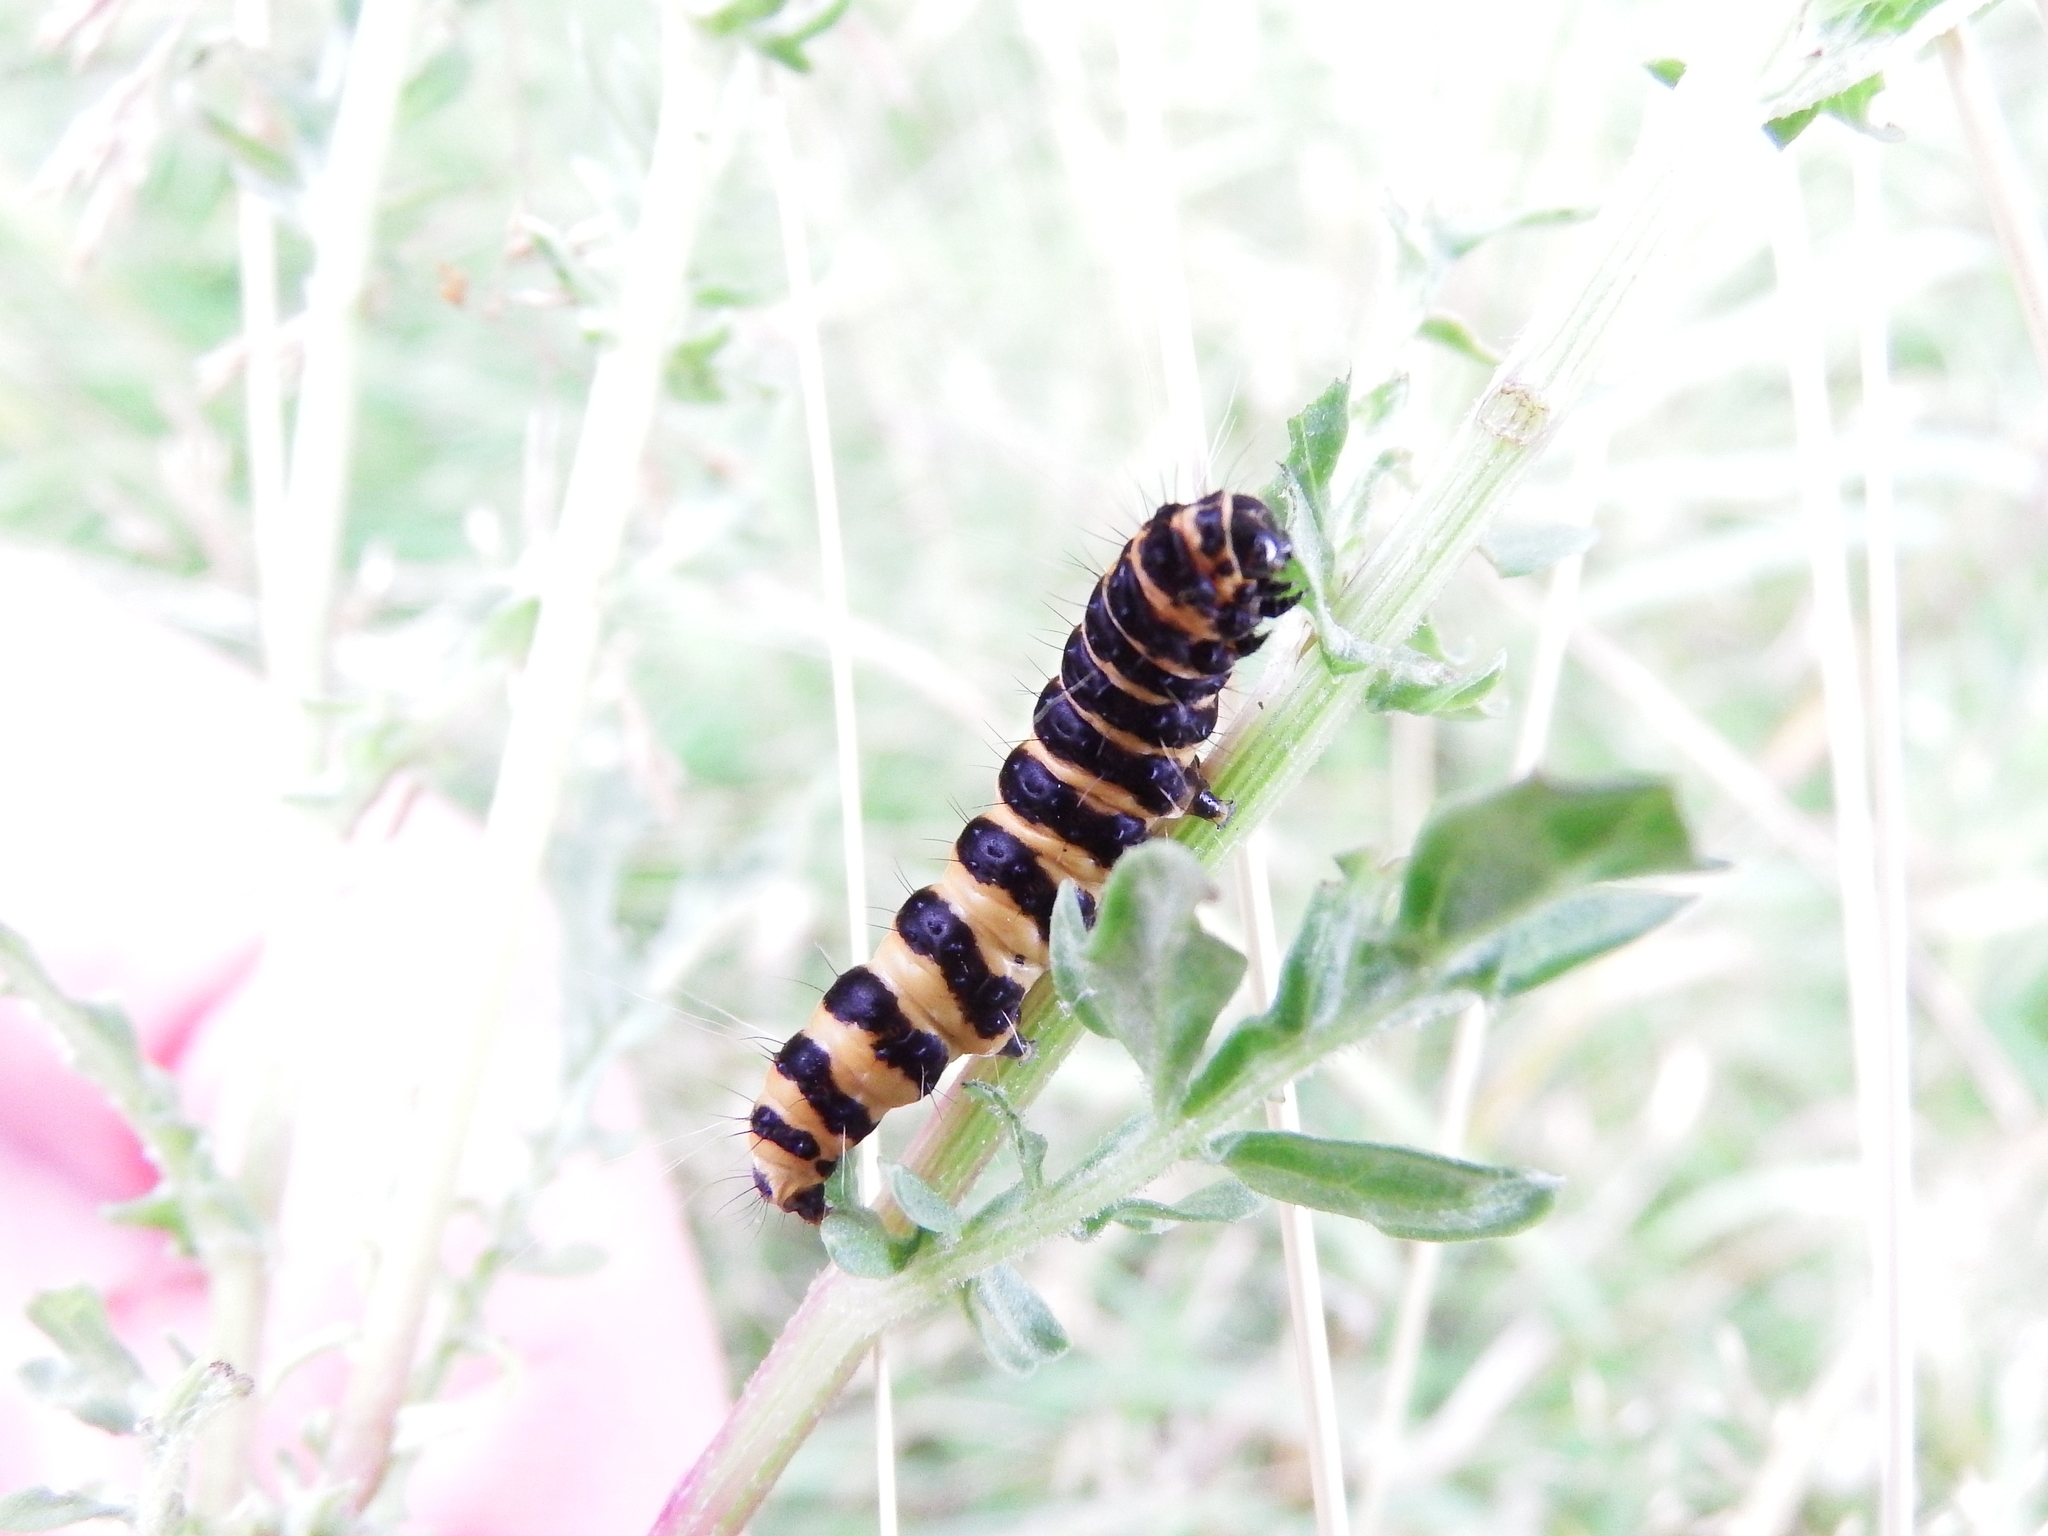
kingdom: Animalia
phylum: Arthropoda
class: Insecta
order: Lepidoptera
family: Erebidae
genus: Tyria
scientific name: Tyria jacobaeae
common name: Cinnabar
